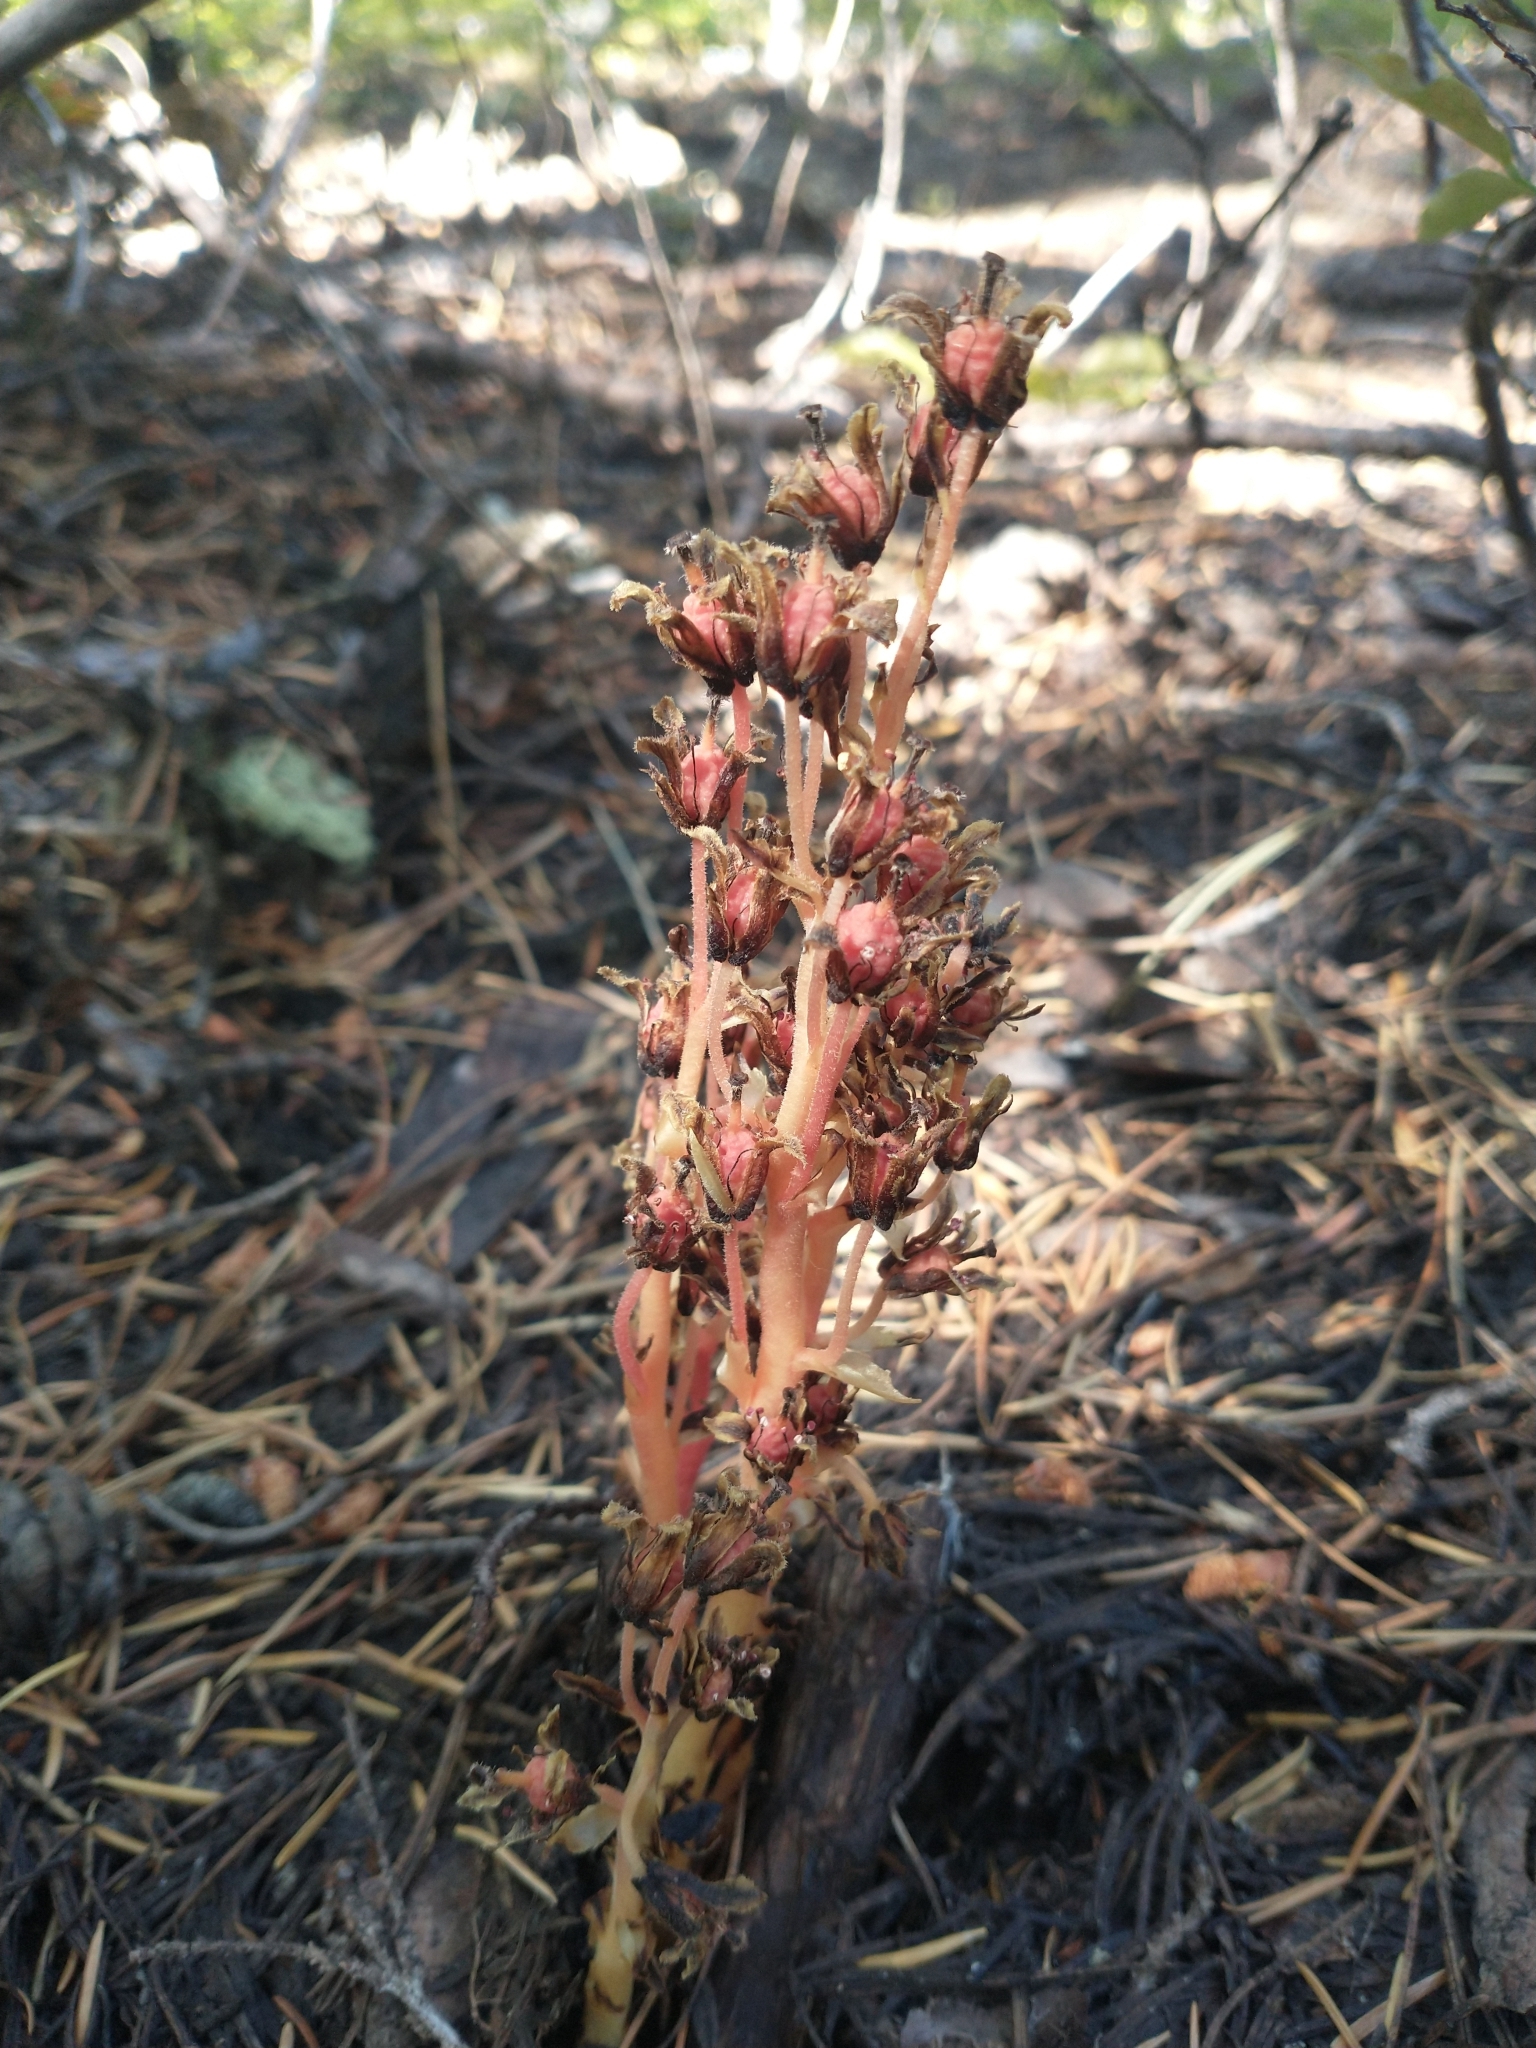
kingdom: Plantae
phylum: Tracheophyta
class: Magnoliopsida
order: Ericales
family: Ericaceae
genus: Hypopitys
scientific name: Hypopitys monotropa
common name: Yellow bird's-nest
